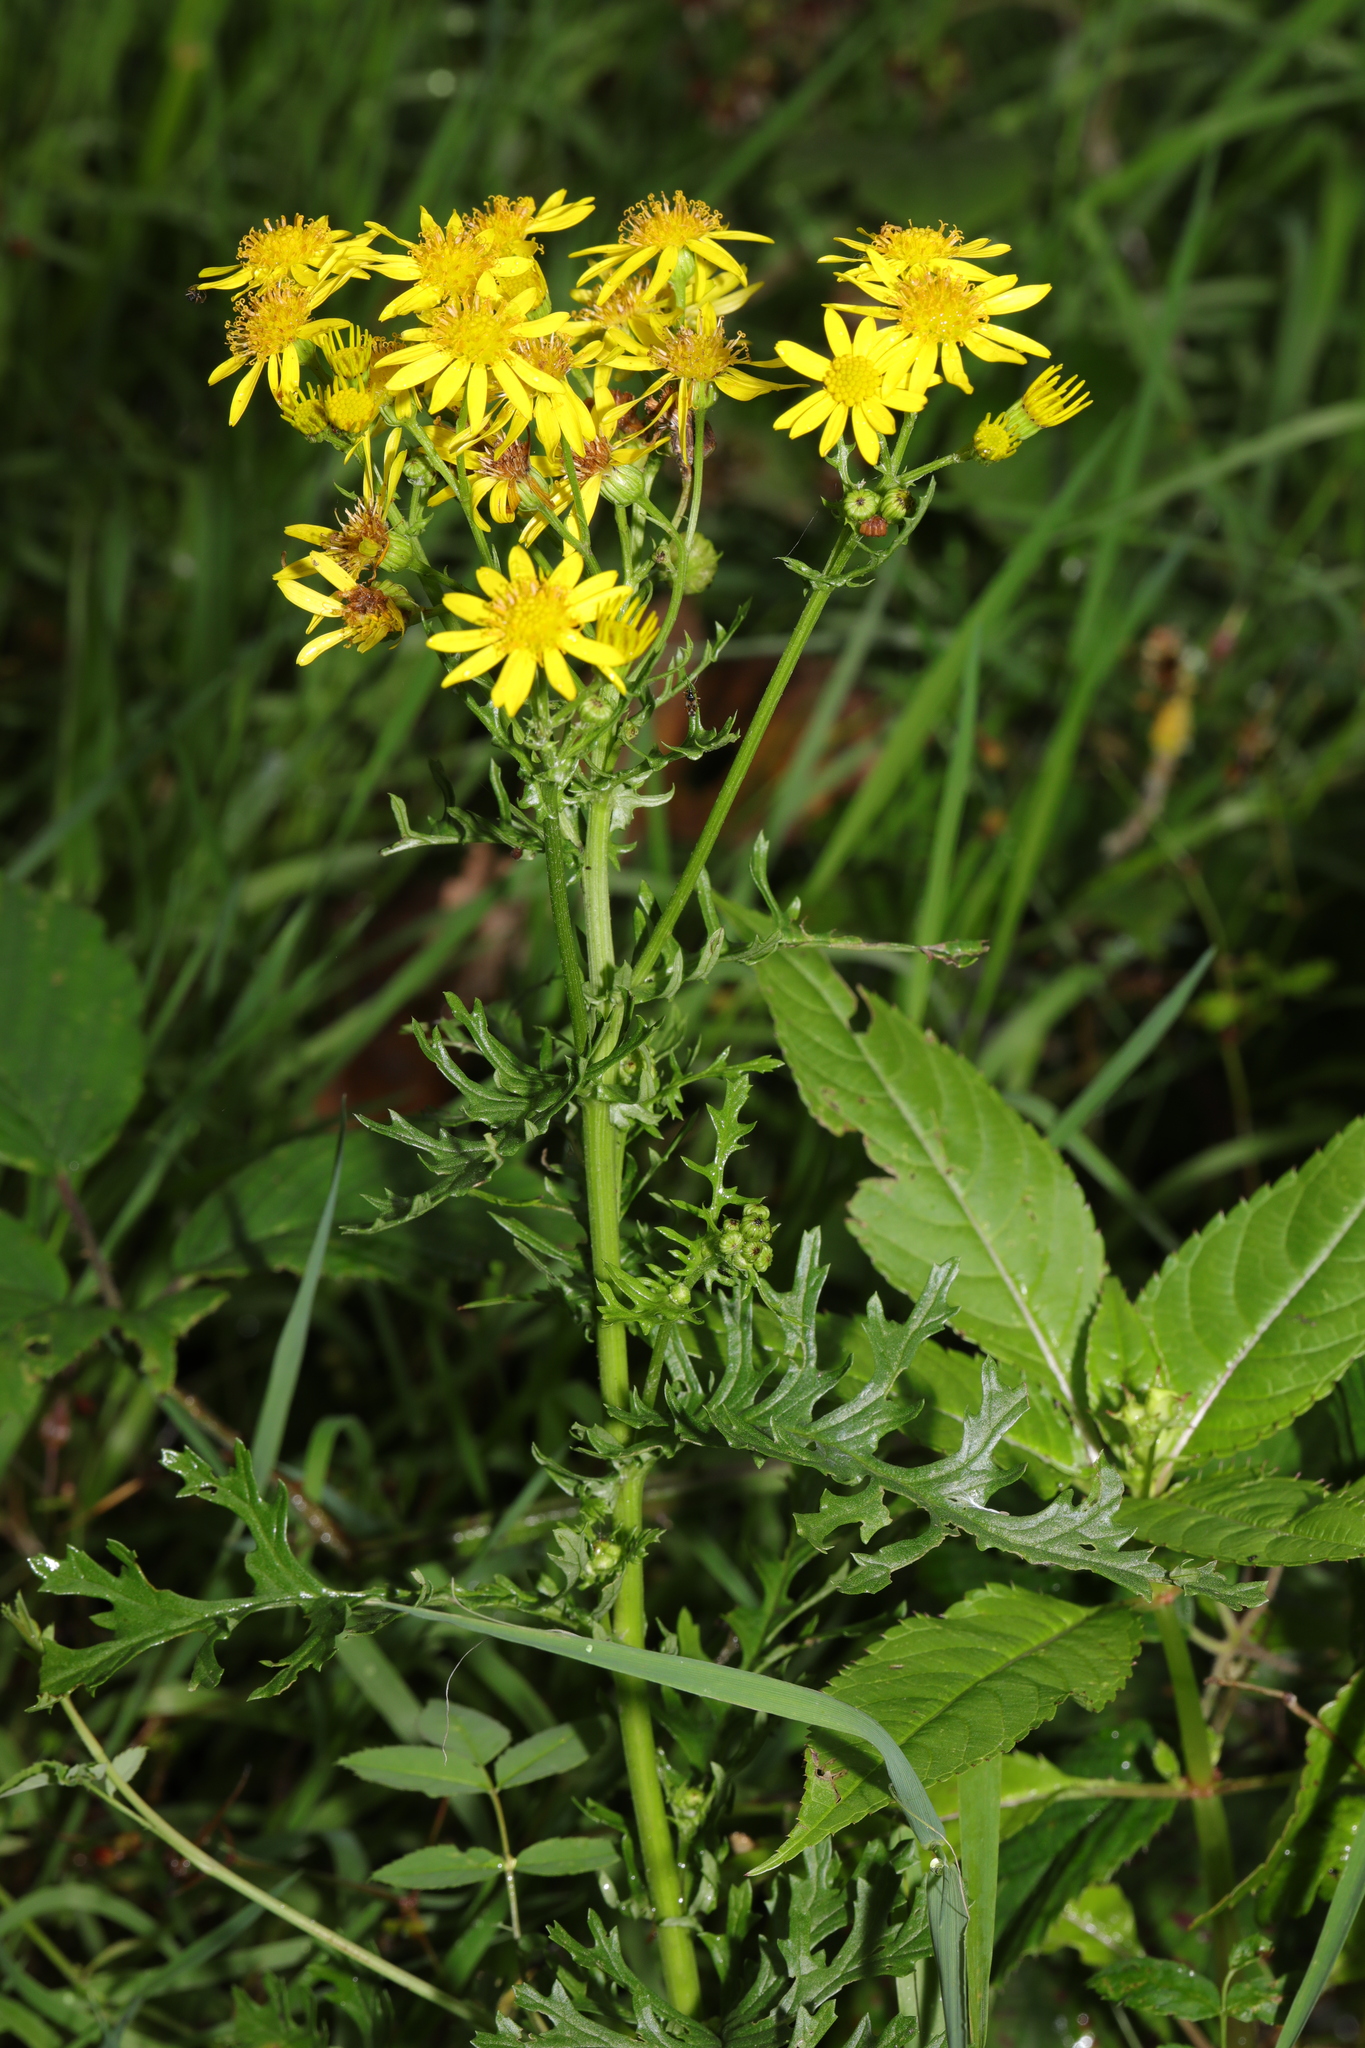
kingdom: Plantae
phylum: Tracheophyta
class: Magnoliopsida
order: Asterales
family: Asteraceae
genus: Jacobaea
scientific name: Jacobaea vulgaris
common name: Stinking willie
